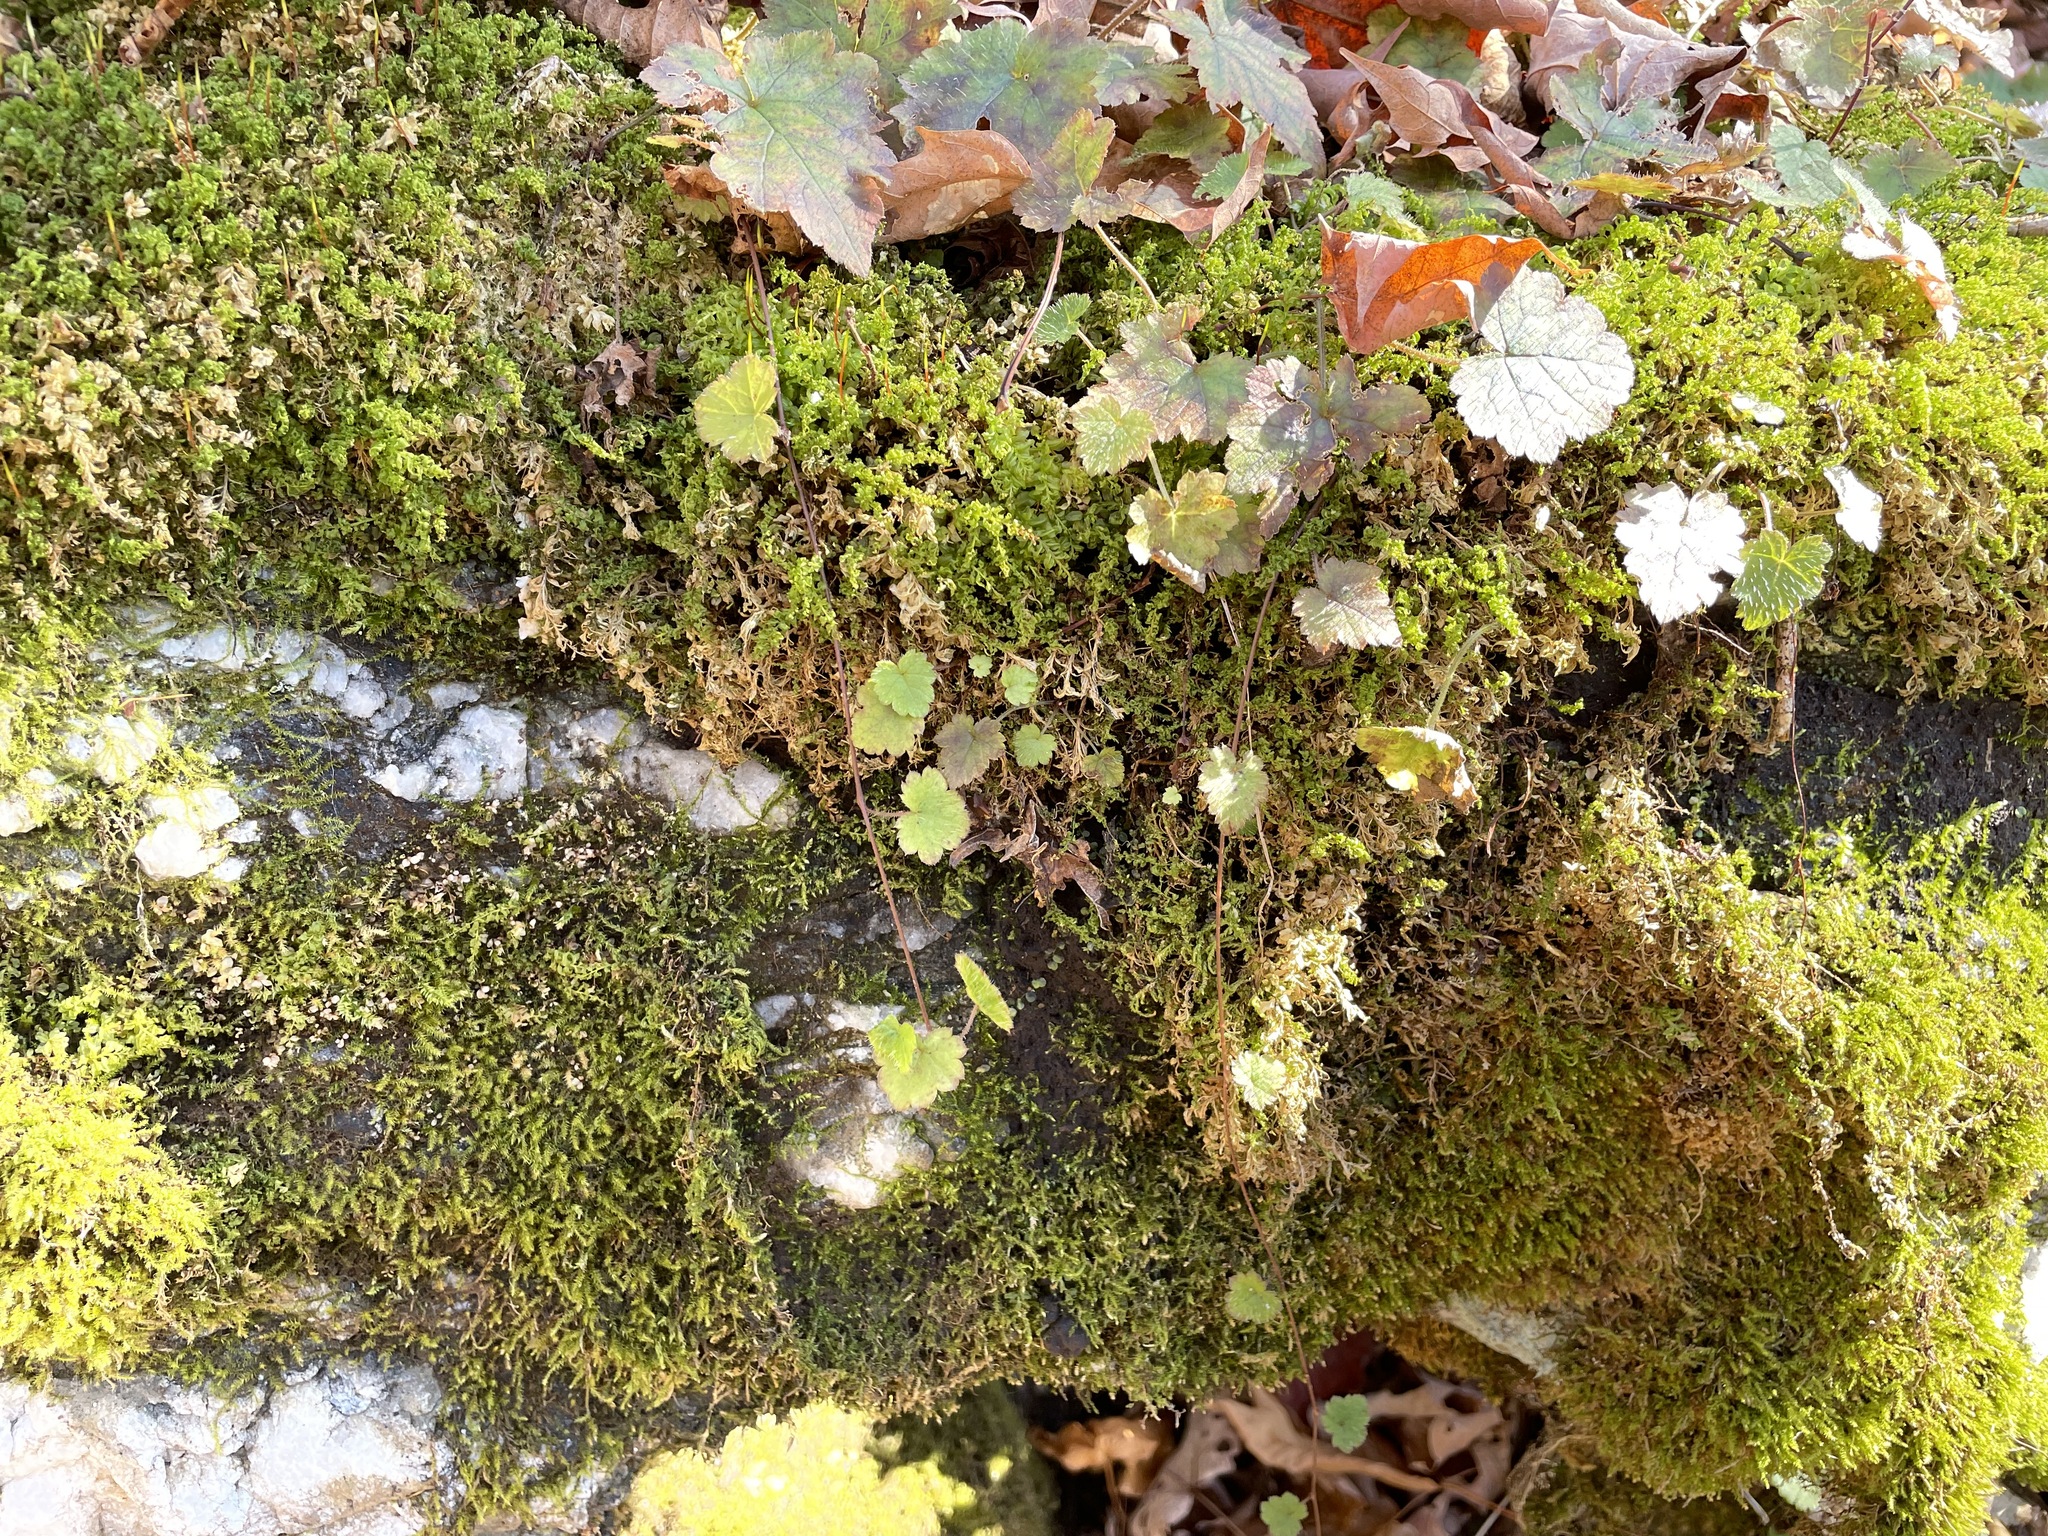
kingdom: Plantae
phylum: Tracheophyta
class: Magnoliopsida
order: Saxifragales
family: Saxifragaceae
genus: Tiarella
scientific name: Tiarella stolonifera
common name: Stoloniferous foamflower
